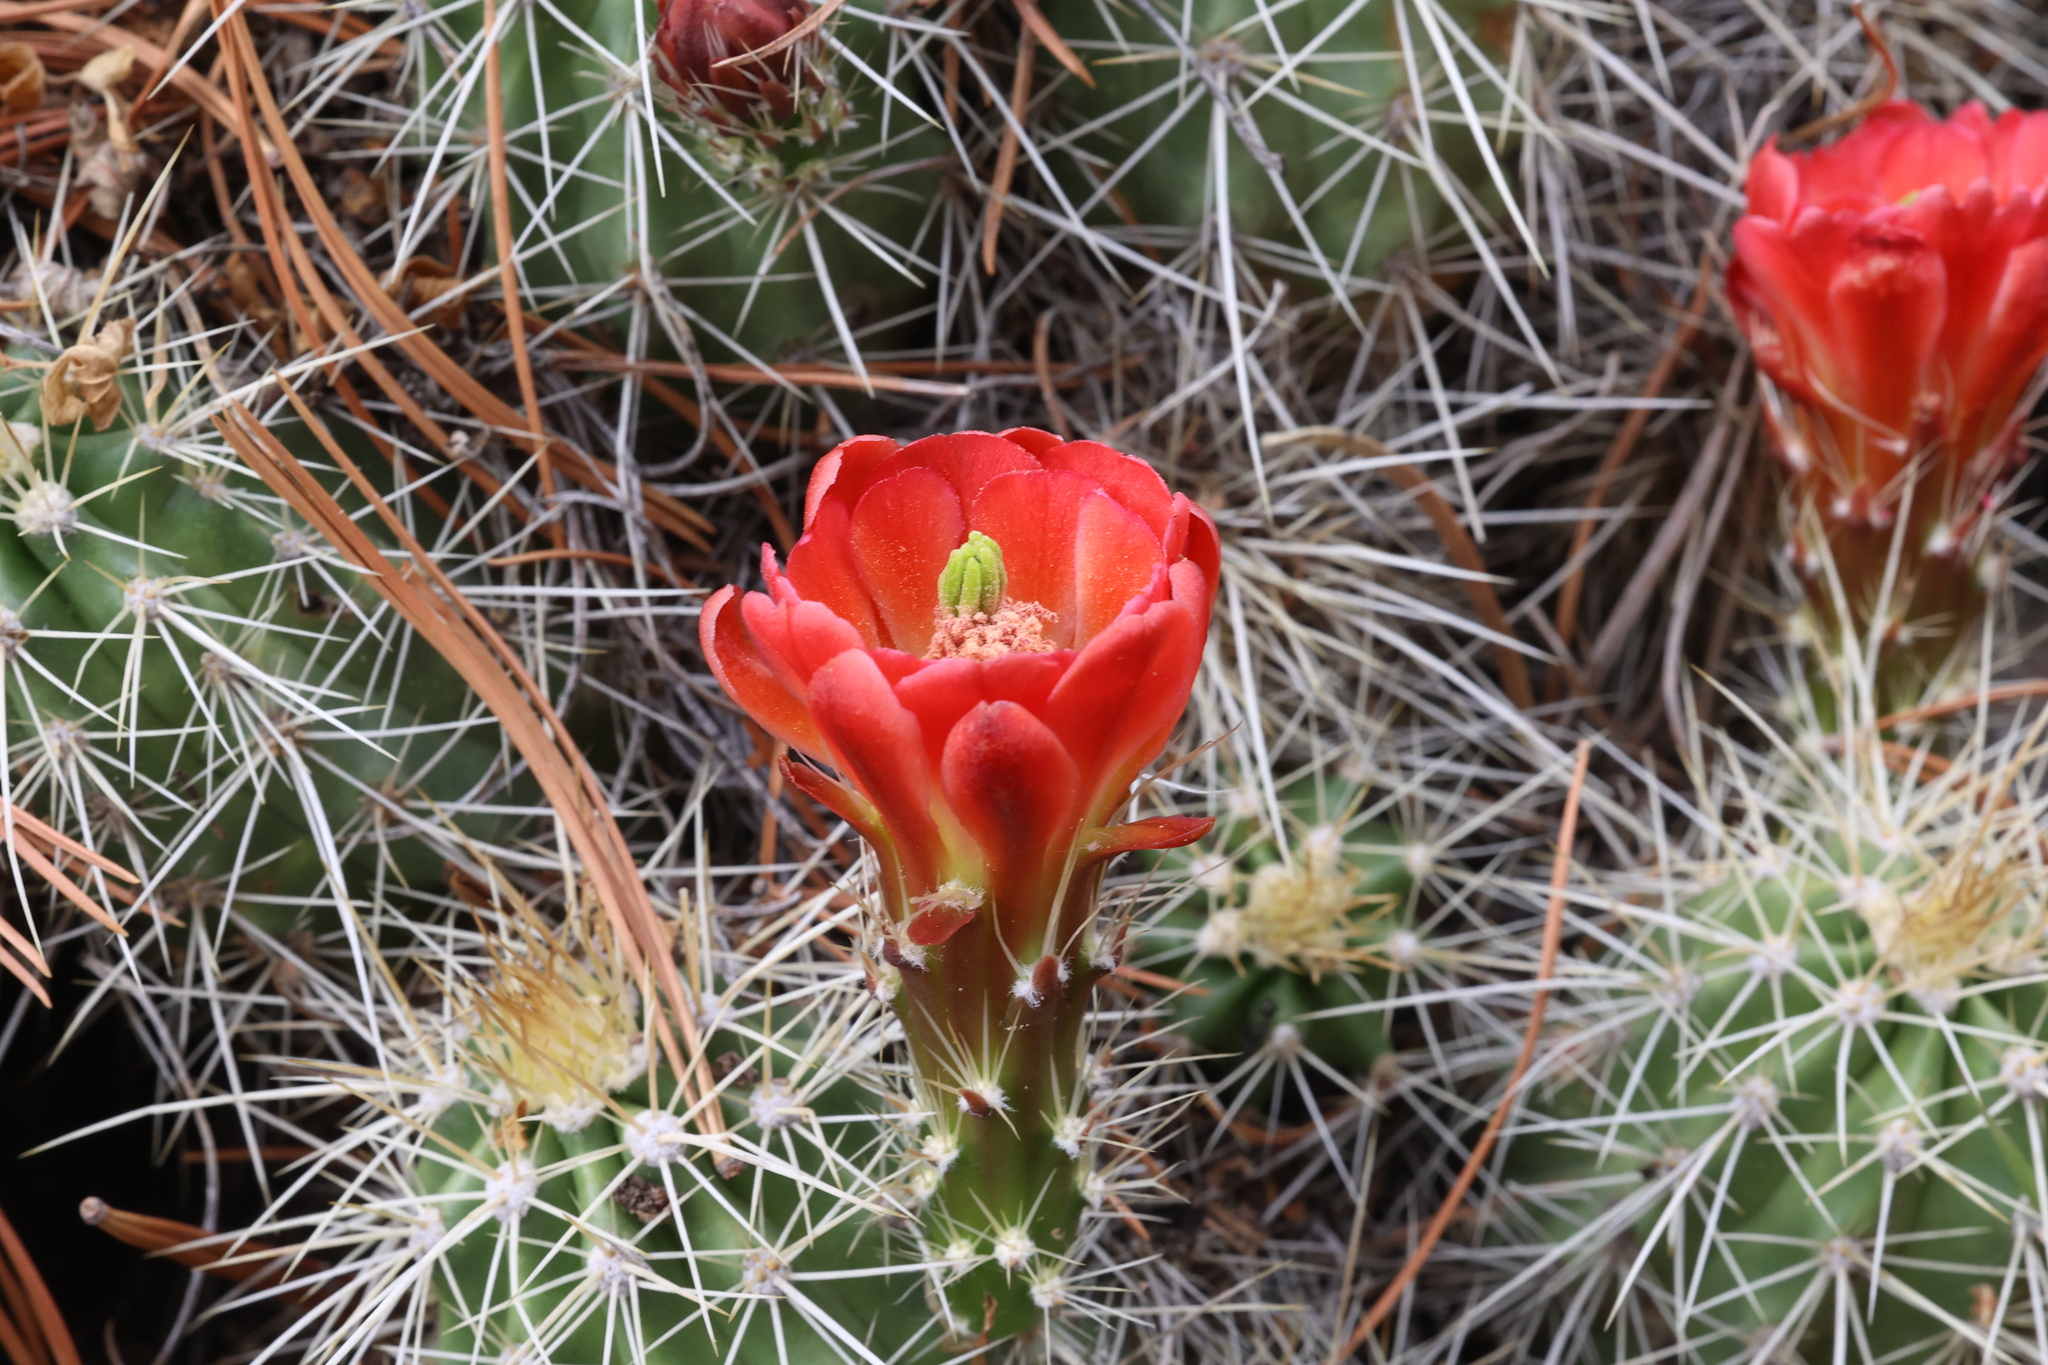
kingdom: Plantae
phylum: Tracheophyta
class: Magnoliopsida
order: Caryophyllales
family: Cactaceae
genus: Echinocereus
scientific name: Echinocereus coccineus
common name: Scarlet hedgehog cactus
